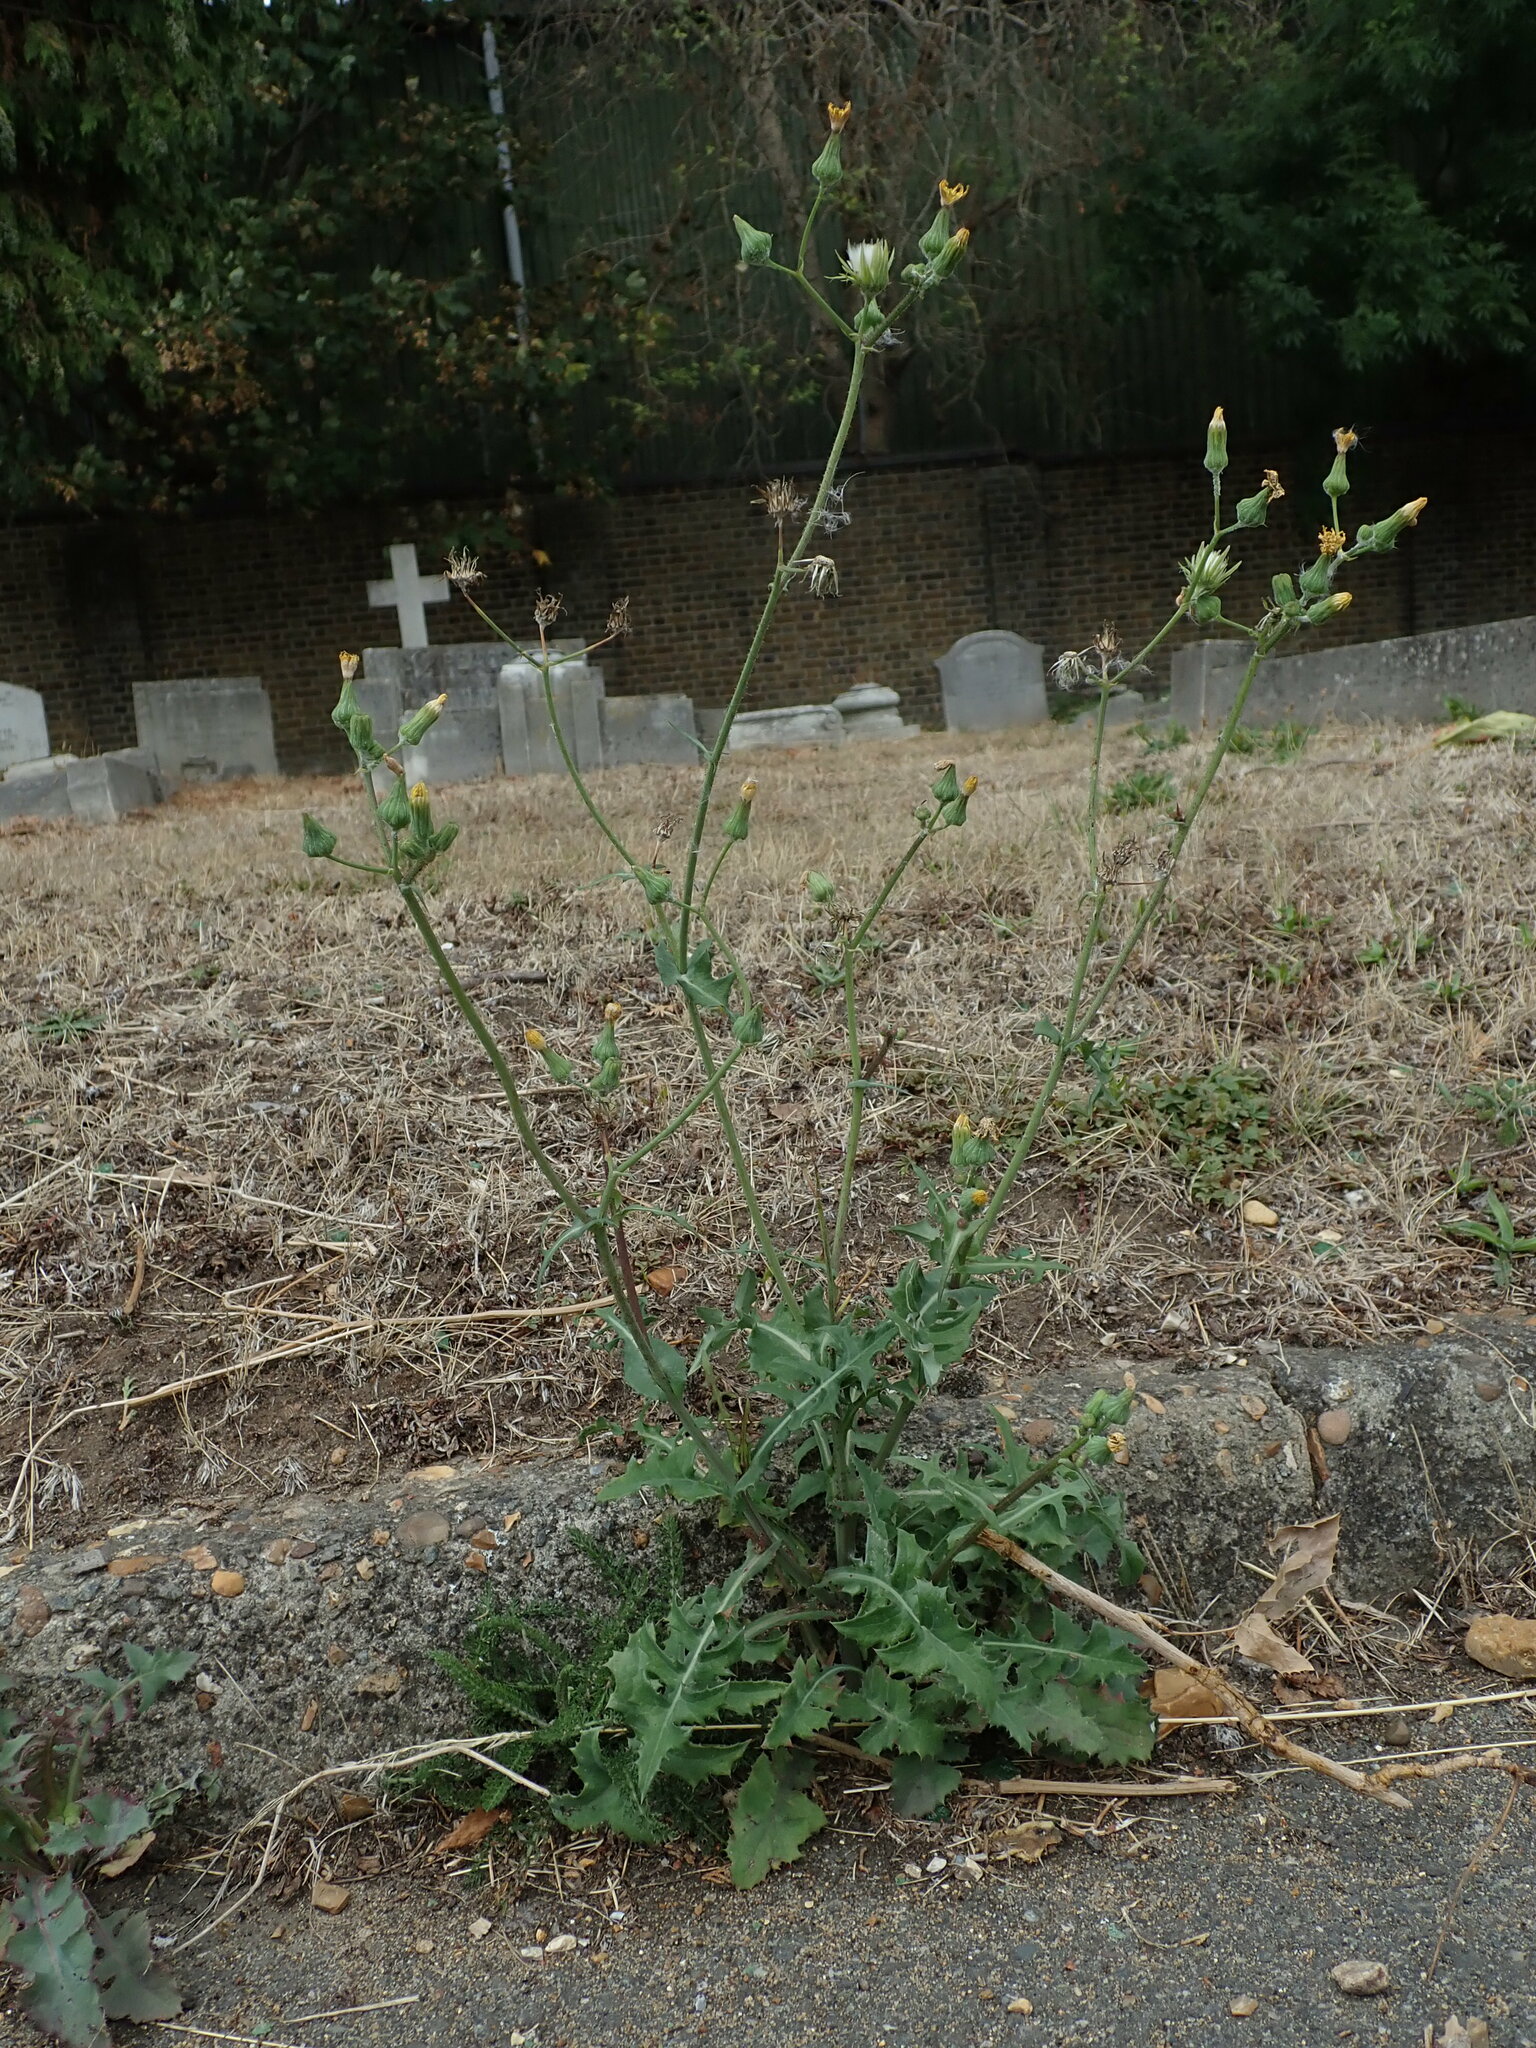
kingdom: Plantae
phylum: Tracheophyta
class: Magnoliopsida
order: Asterales
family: Asteraceae
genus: Sonchus
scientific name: Sonchus oleraceus
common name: Common sowthistle
